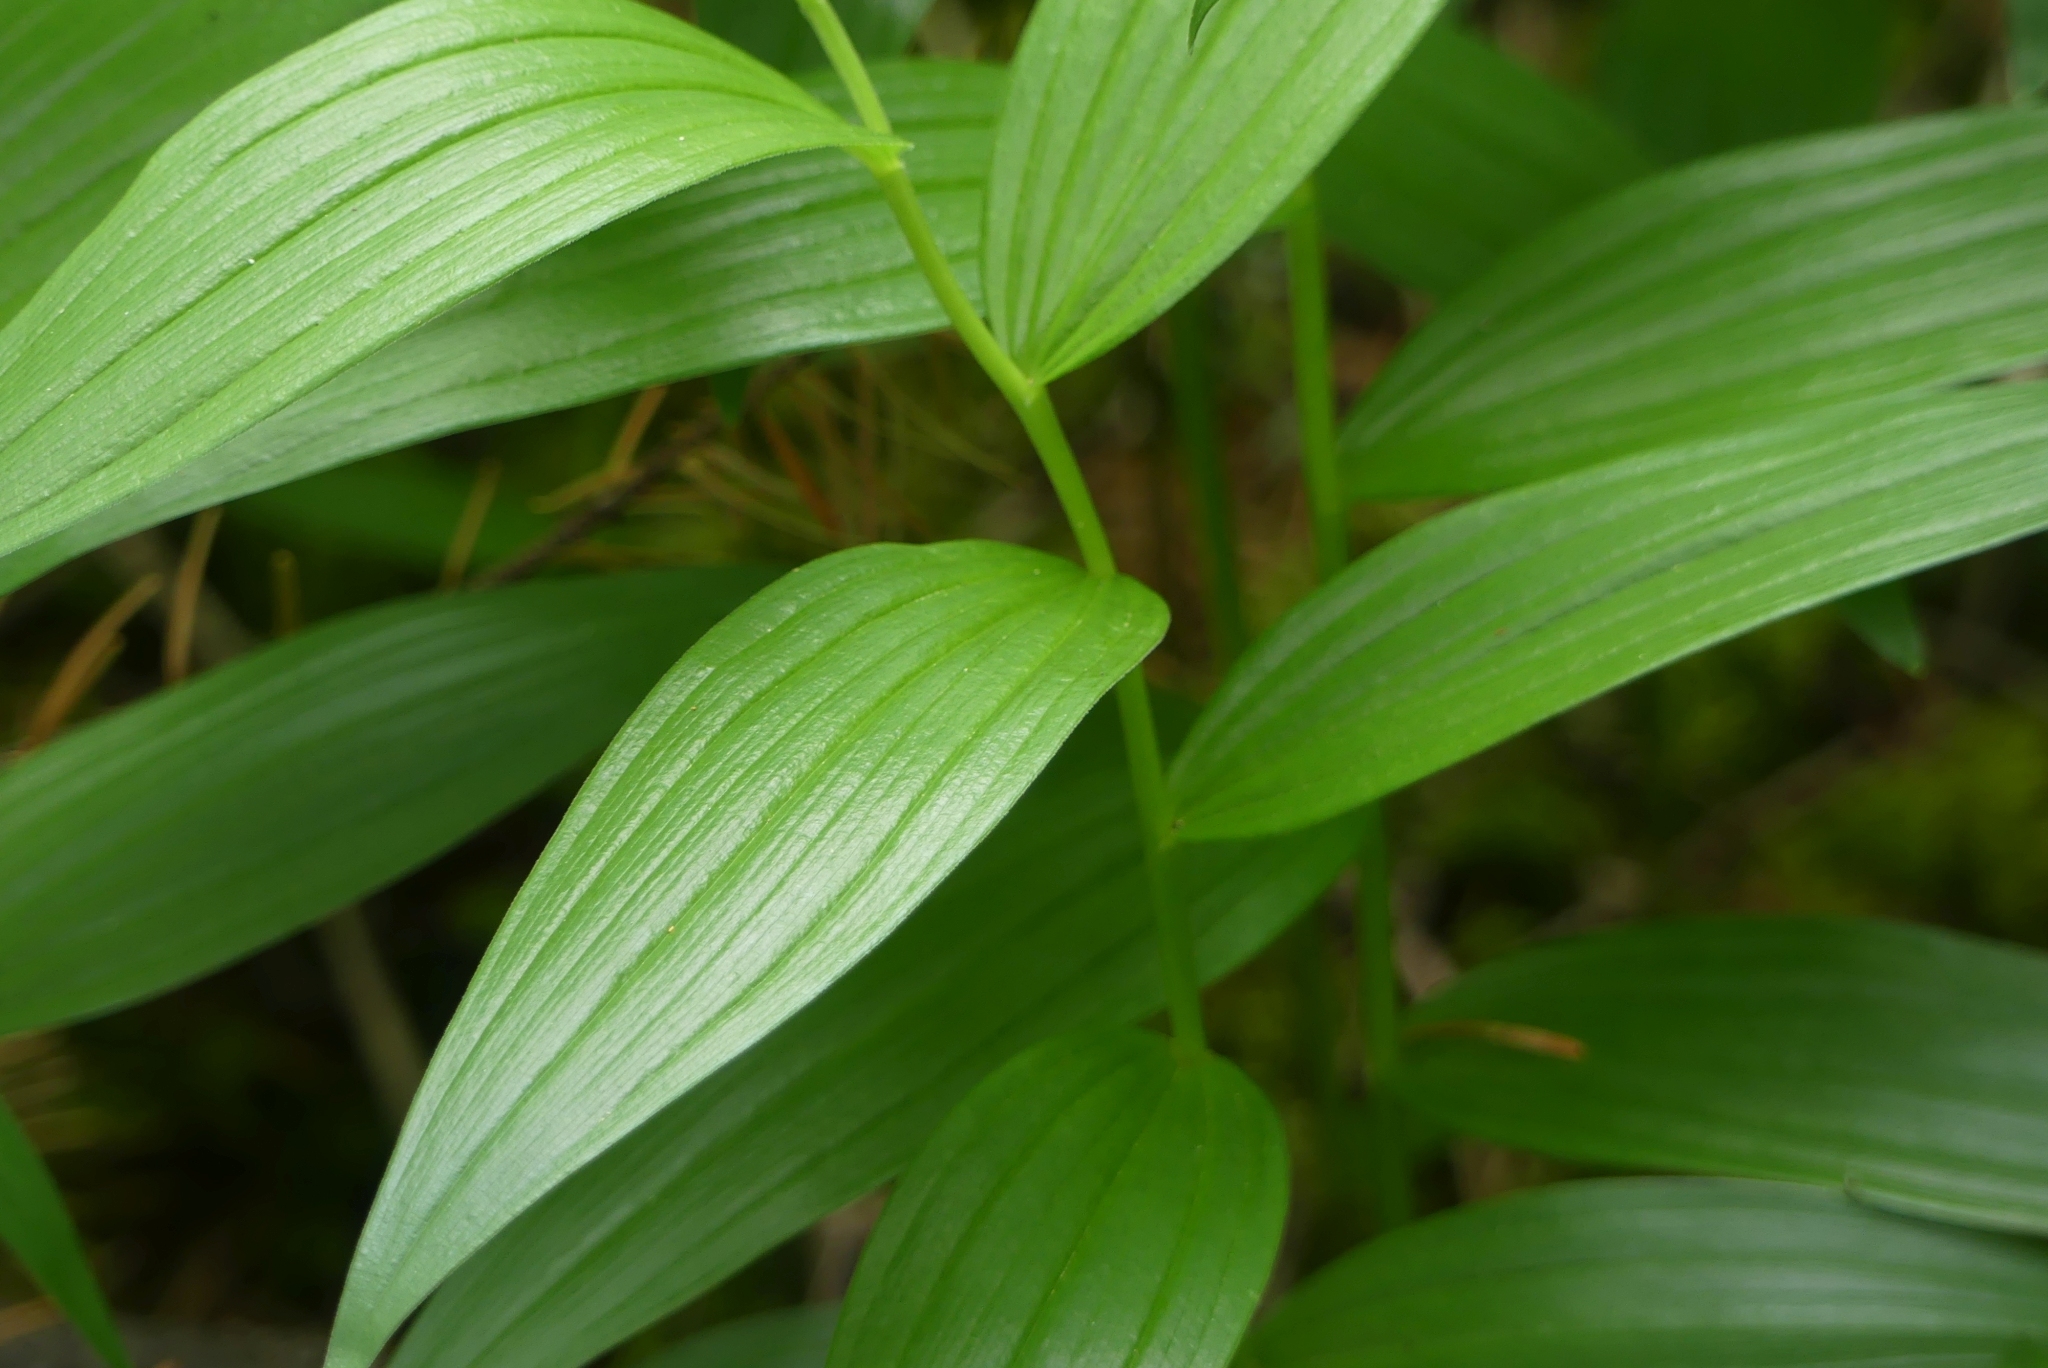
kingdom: Plantae
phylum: Tracheophyta
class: Liliopsida
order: Asparagales
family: Asparagaceae
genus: Maianthemum
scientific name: Maianthemum stellatum
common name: Little false solomon's seal
